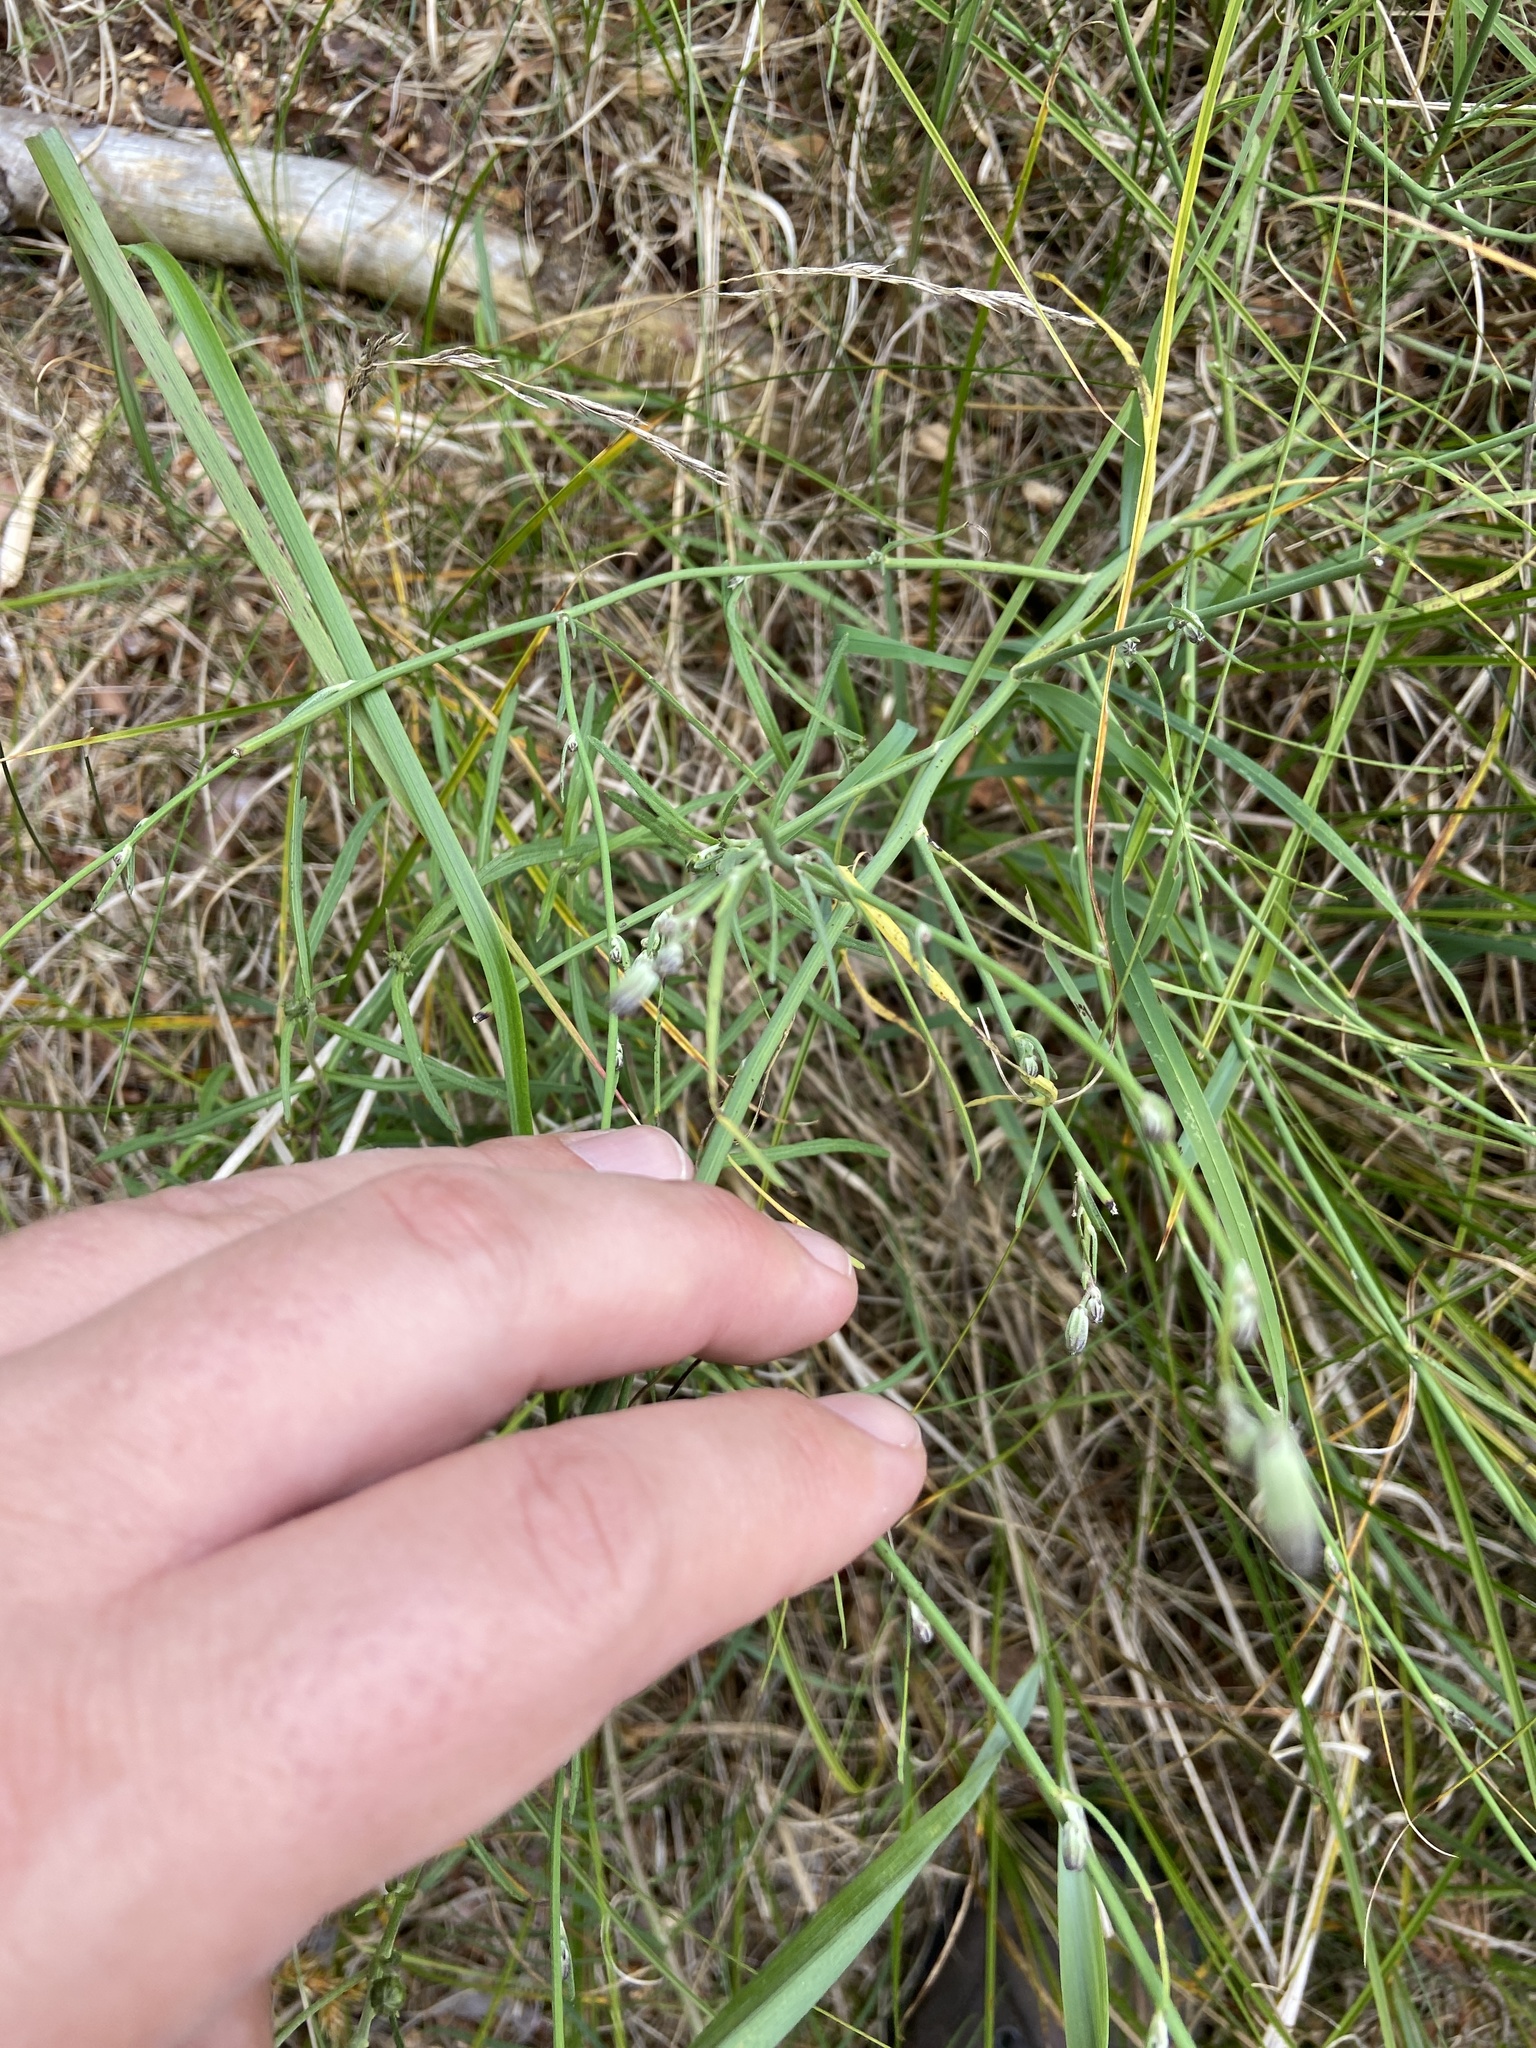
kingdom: Plantae
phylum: Tracheophyta
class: Magnoliopsida
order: Asterales
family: Asteraceae
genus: Chondrilla
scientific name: Chondrilla juncea
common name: Skeleton weed
